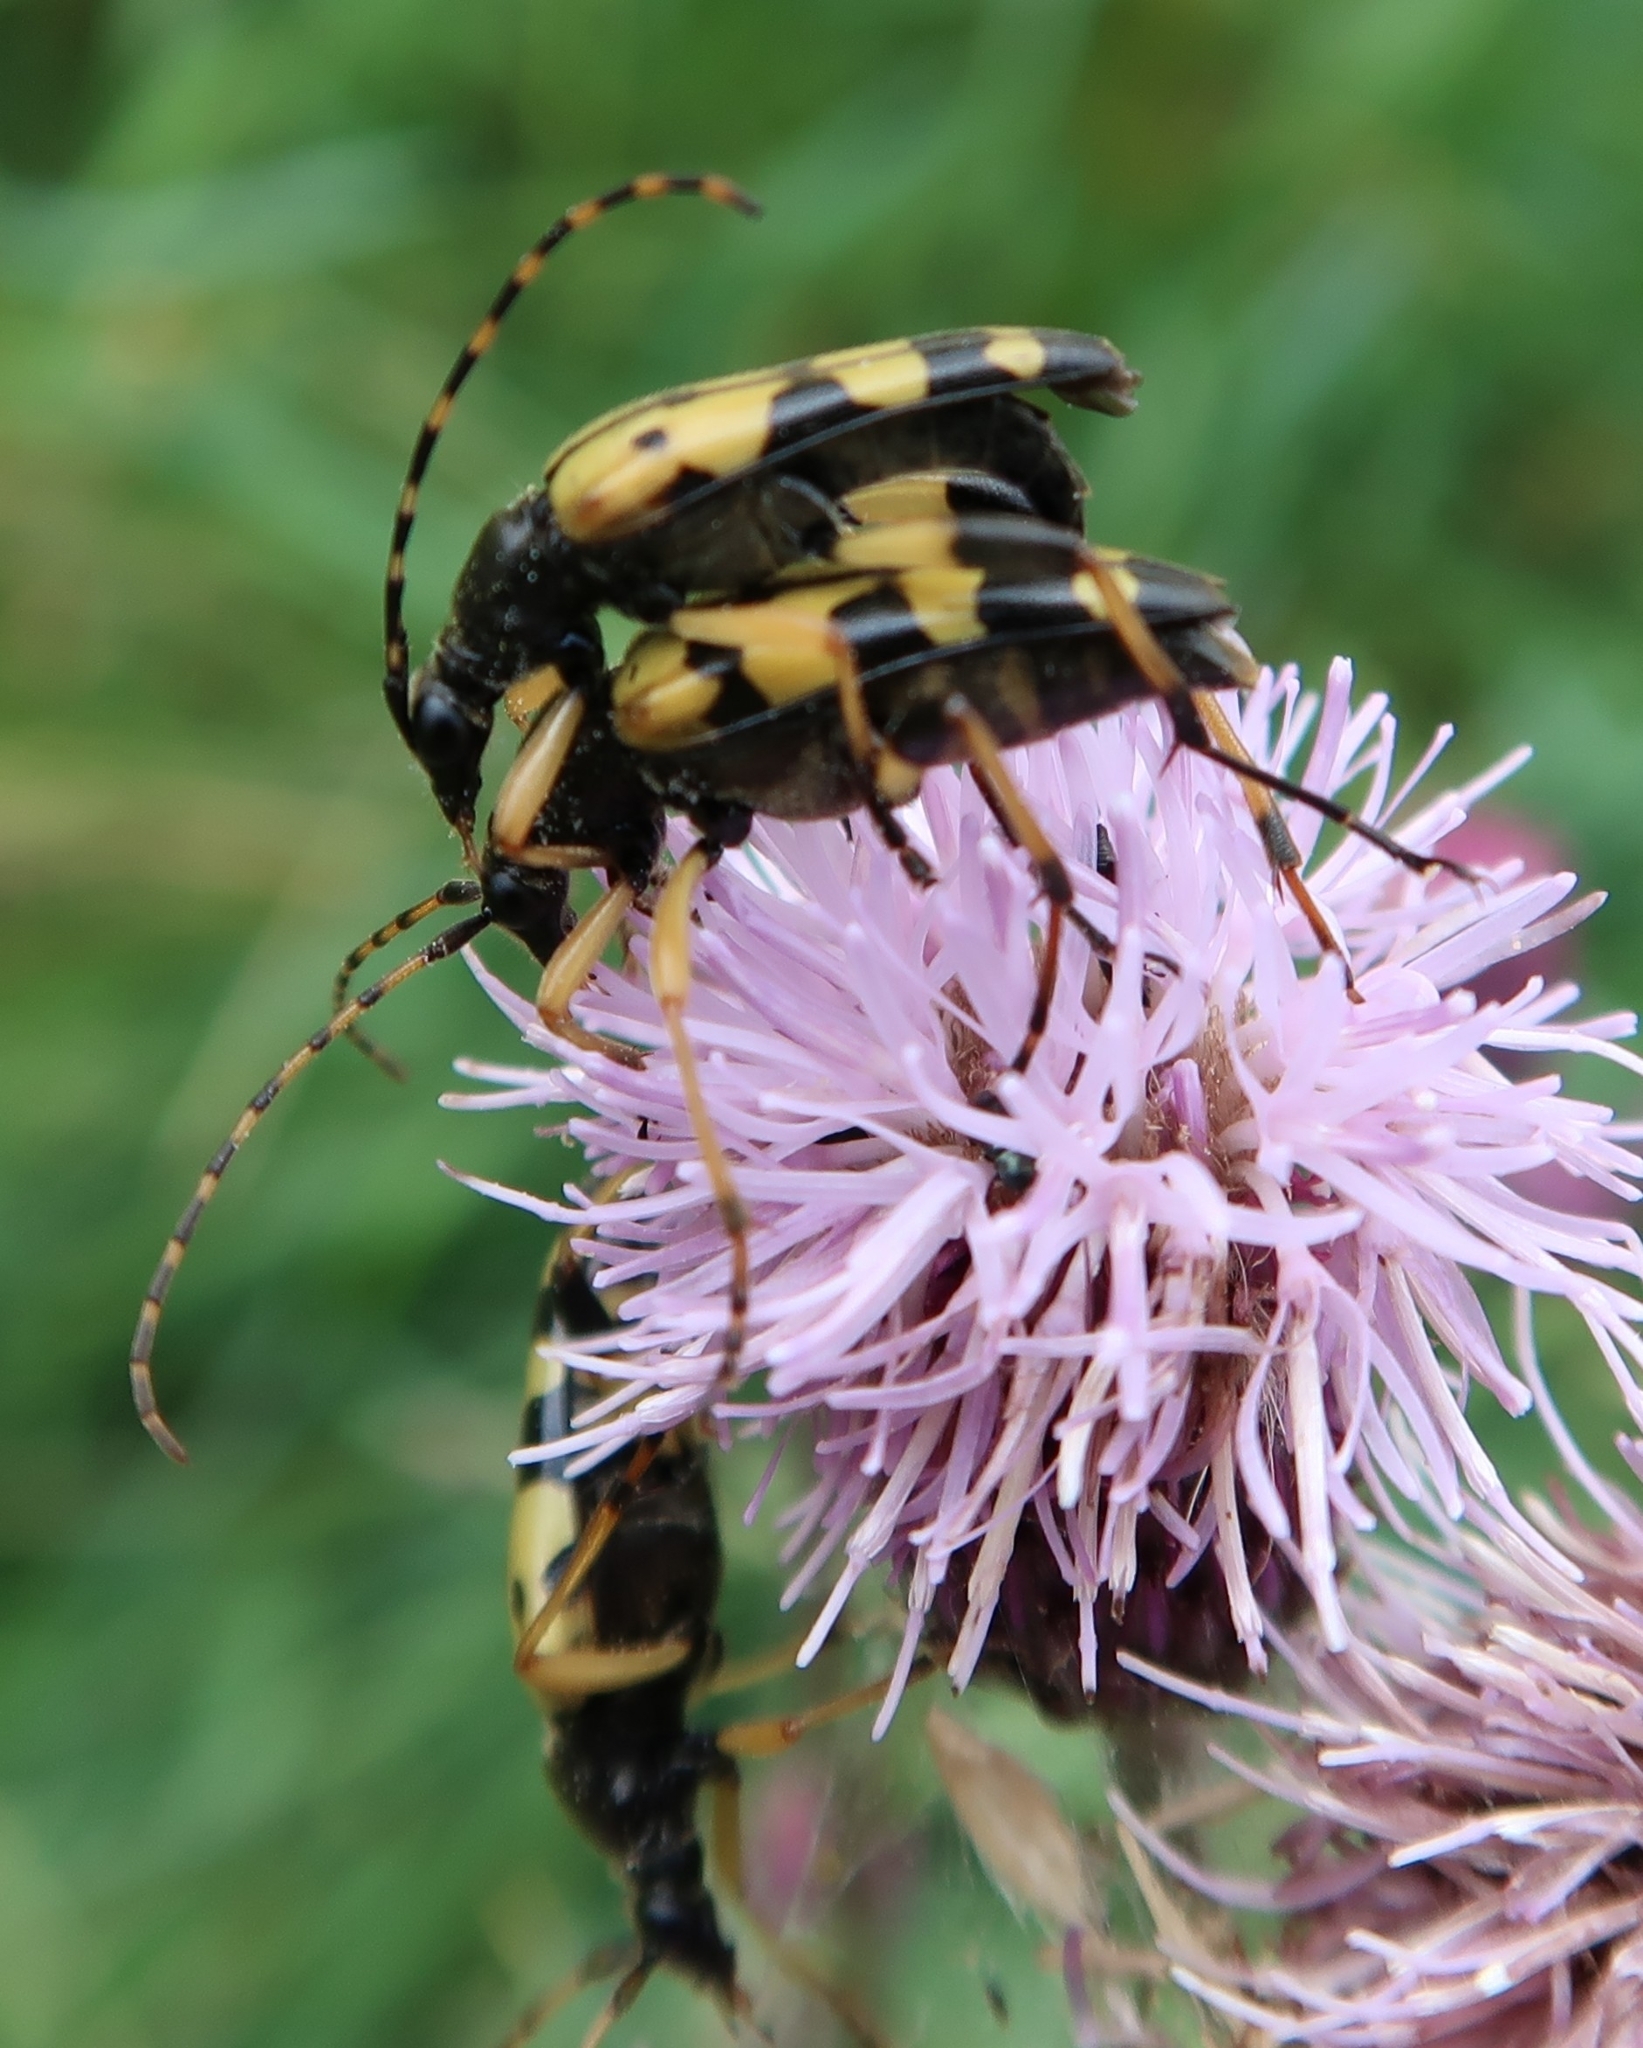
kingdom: Animalia
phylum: Arthropoda
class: Insecta
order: Coleoptera
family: Cerambycidae
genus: Rutpela
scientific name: Rutpela maculata
